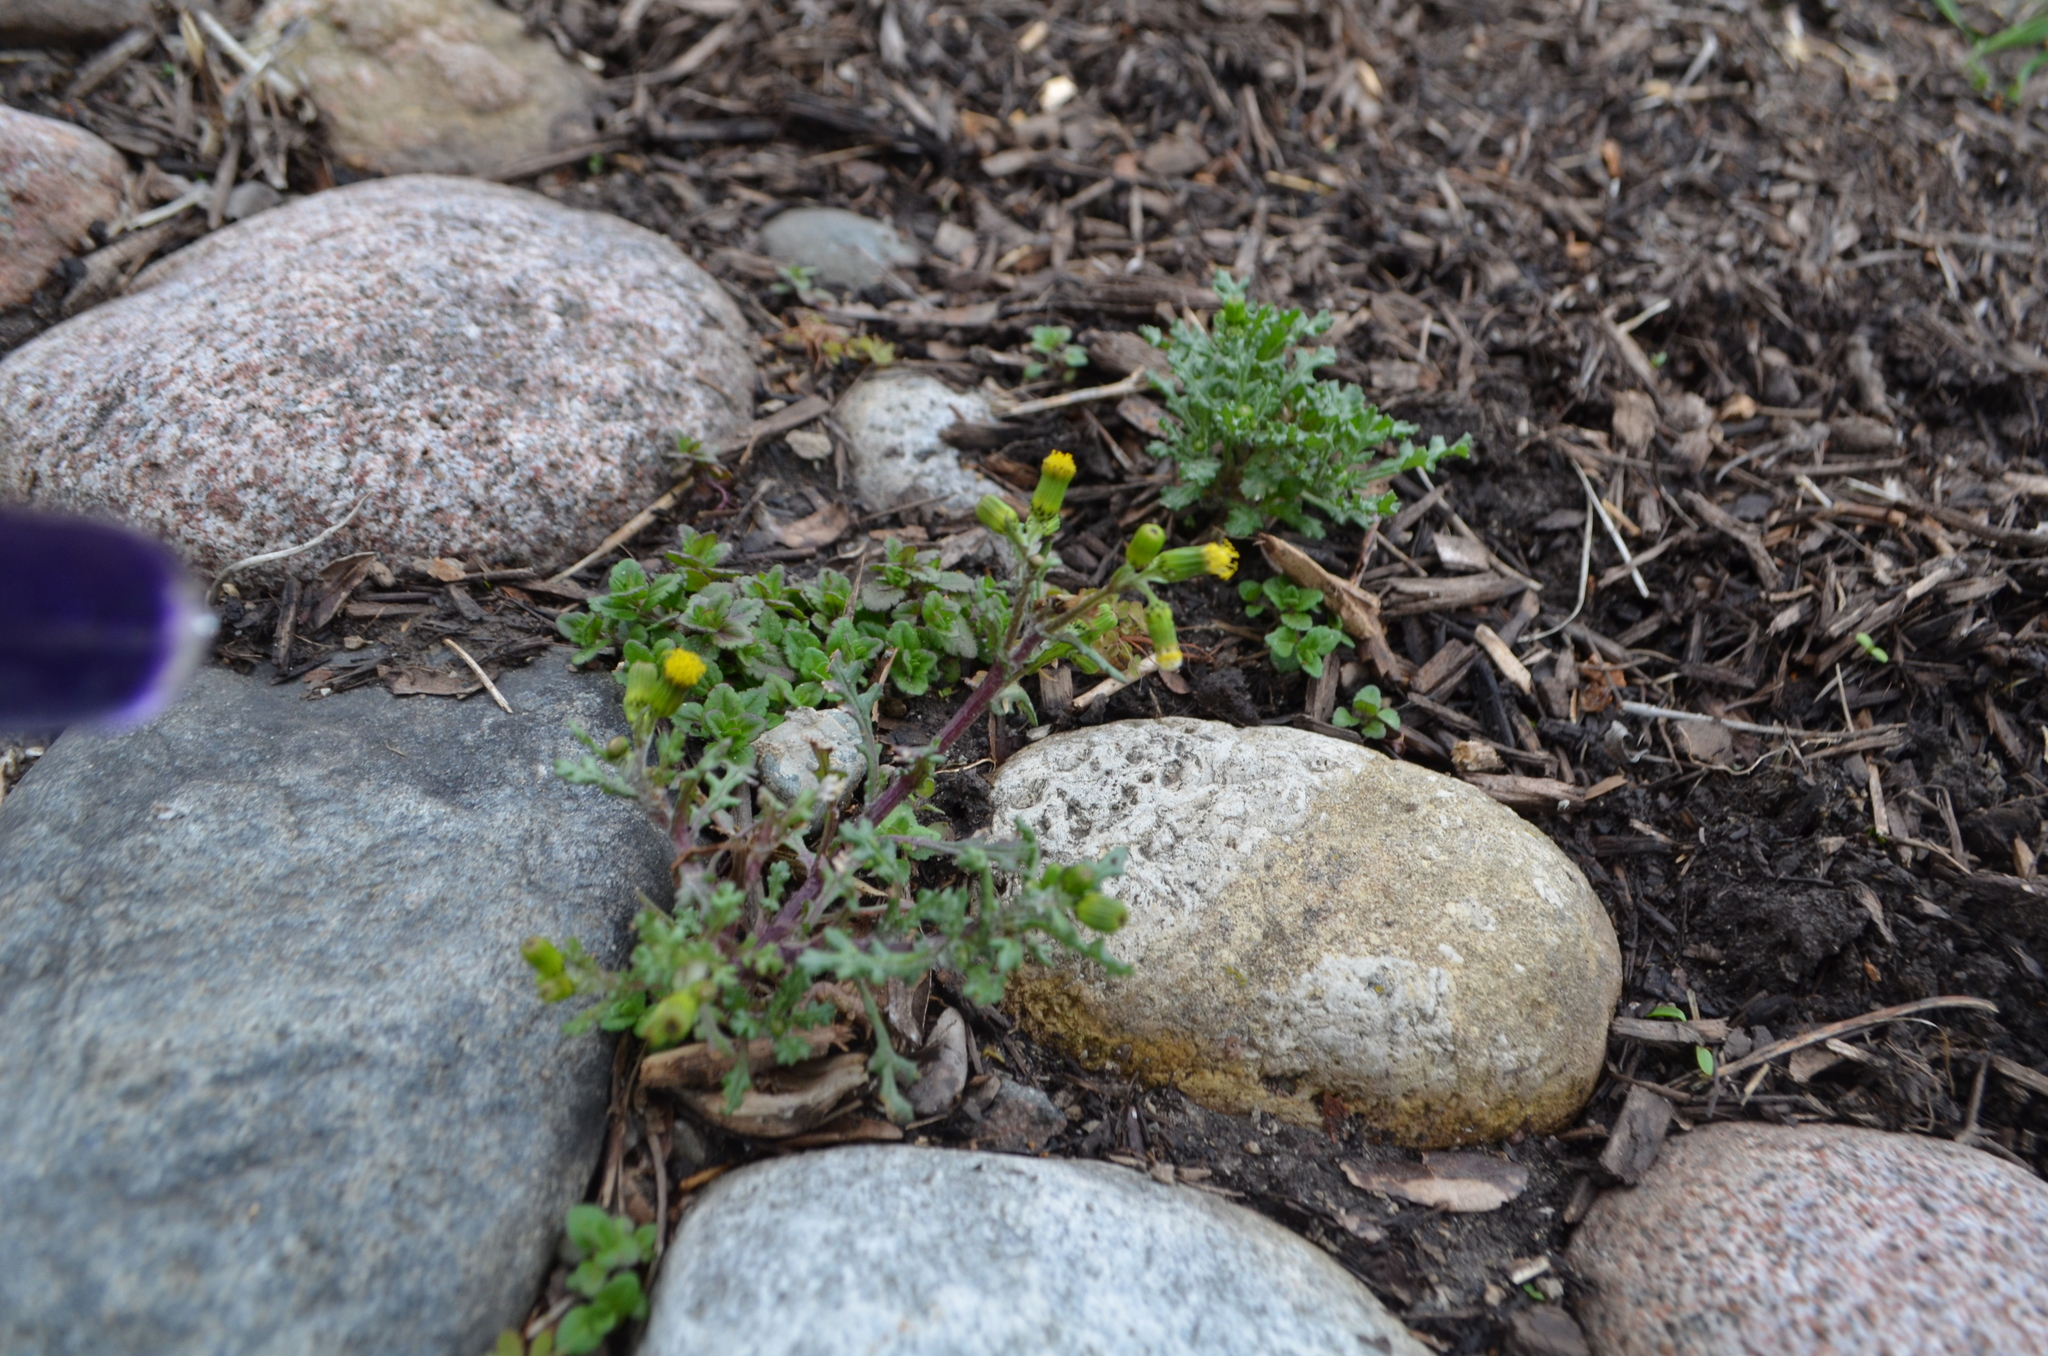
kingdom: Plantae
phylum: Tracheophyta
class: Magnoliopsida
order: Asterales
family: Asteraceae
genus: Senecio
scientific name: Senecio vulgaris
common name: Old-man-in-the-spring
